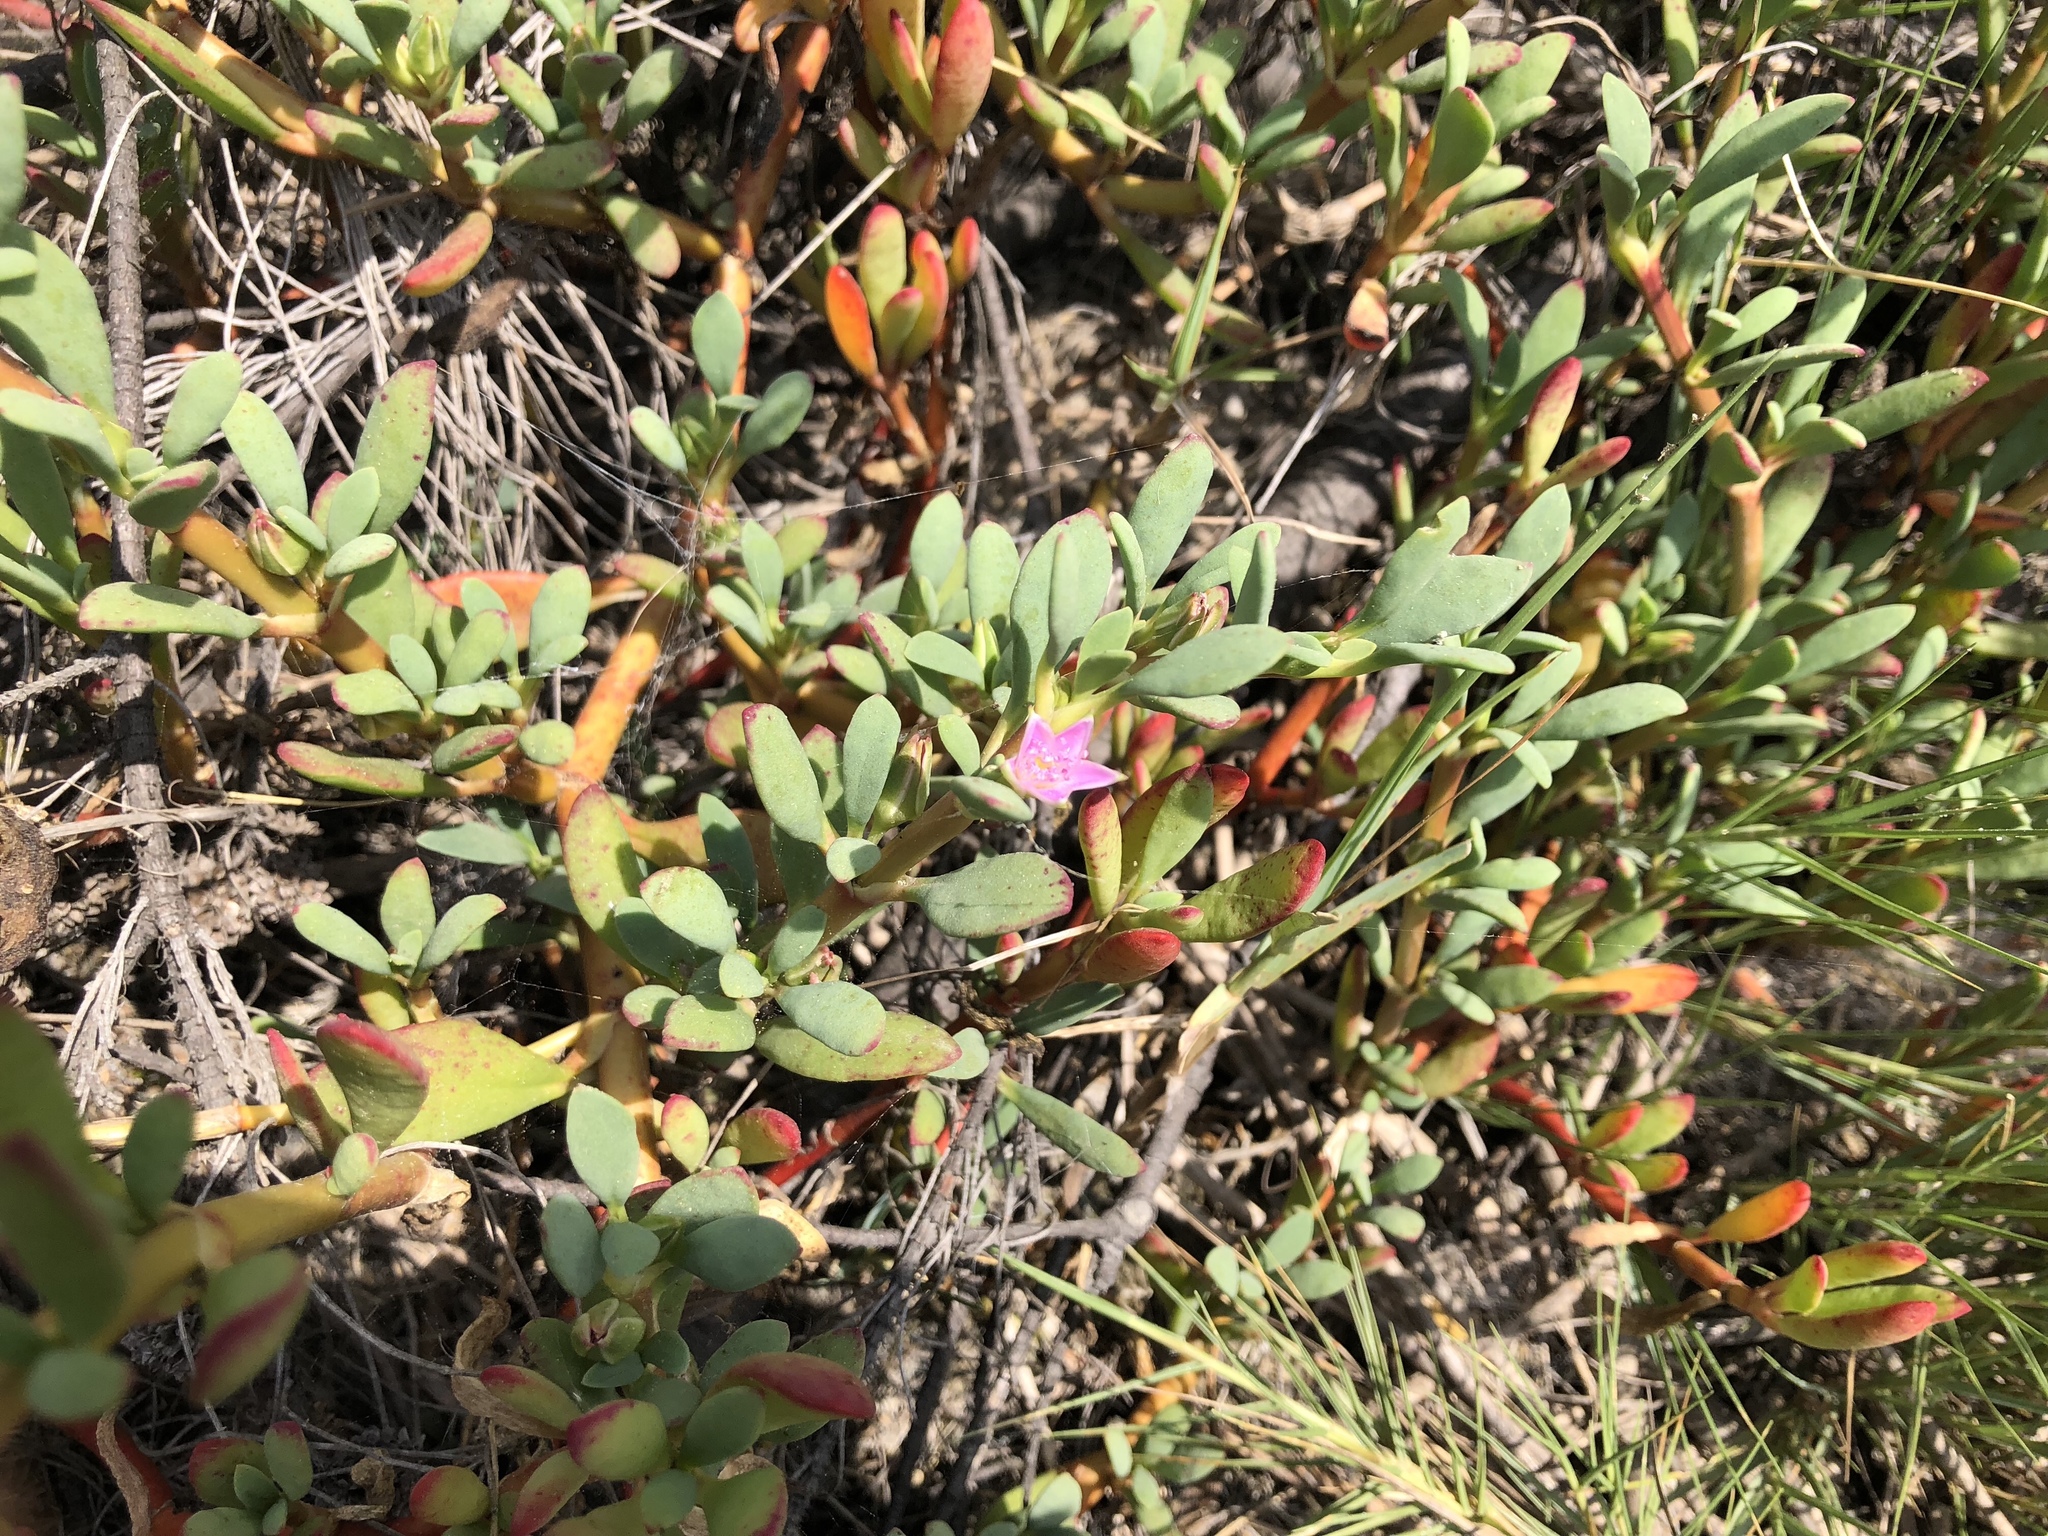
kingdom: Plantae
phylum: Tracheophyta
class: Magnoliopsida
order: Caryophyllales
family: Aizoaceae
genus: Sesuvium
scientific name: Sesuvium portulacastrum
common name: Sea-purslane
